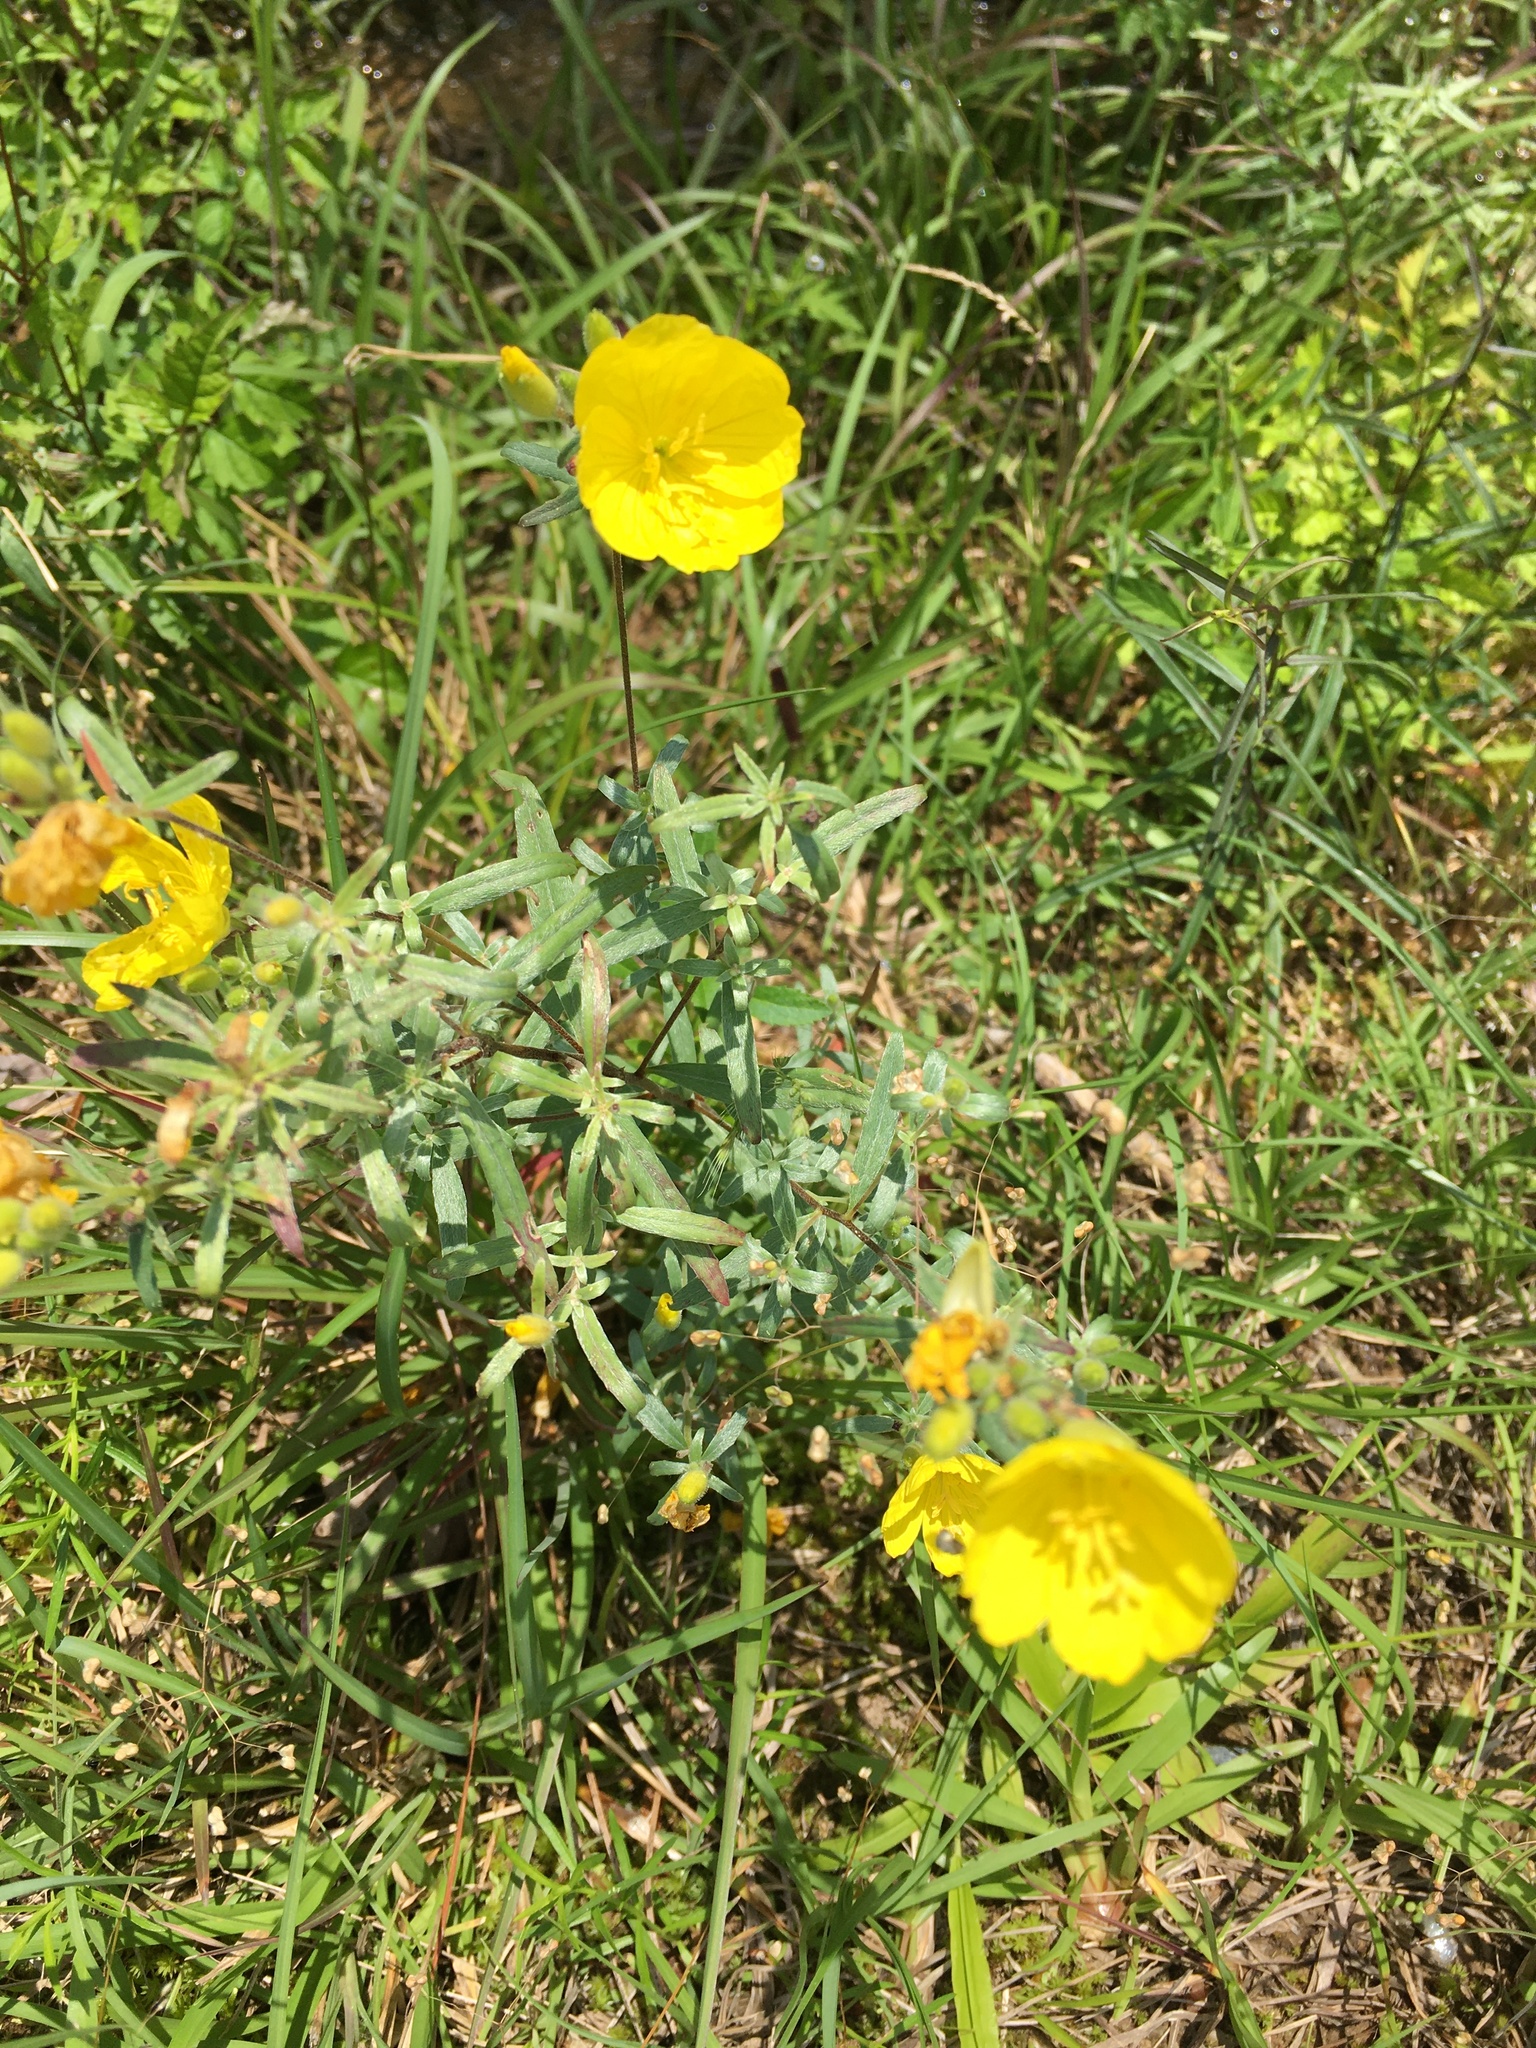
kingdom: Plantae
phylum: Tracheophyta
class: Magnoliopsida
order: Myrtales
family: Onagraceae
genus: Oenothera
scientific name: Oenothera fruticosa
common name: Southern sundrops
